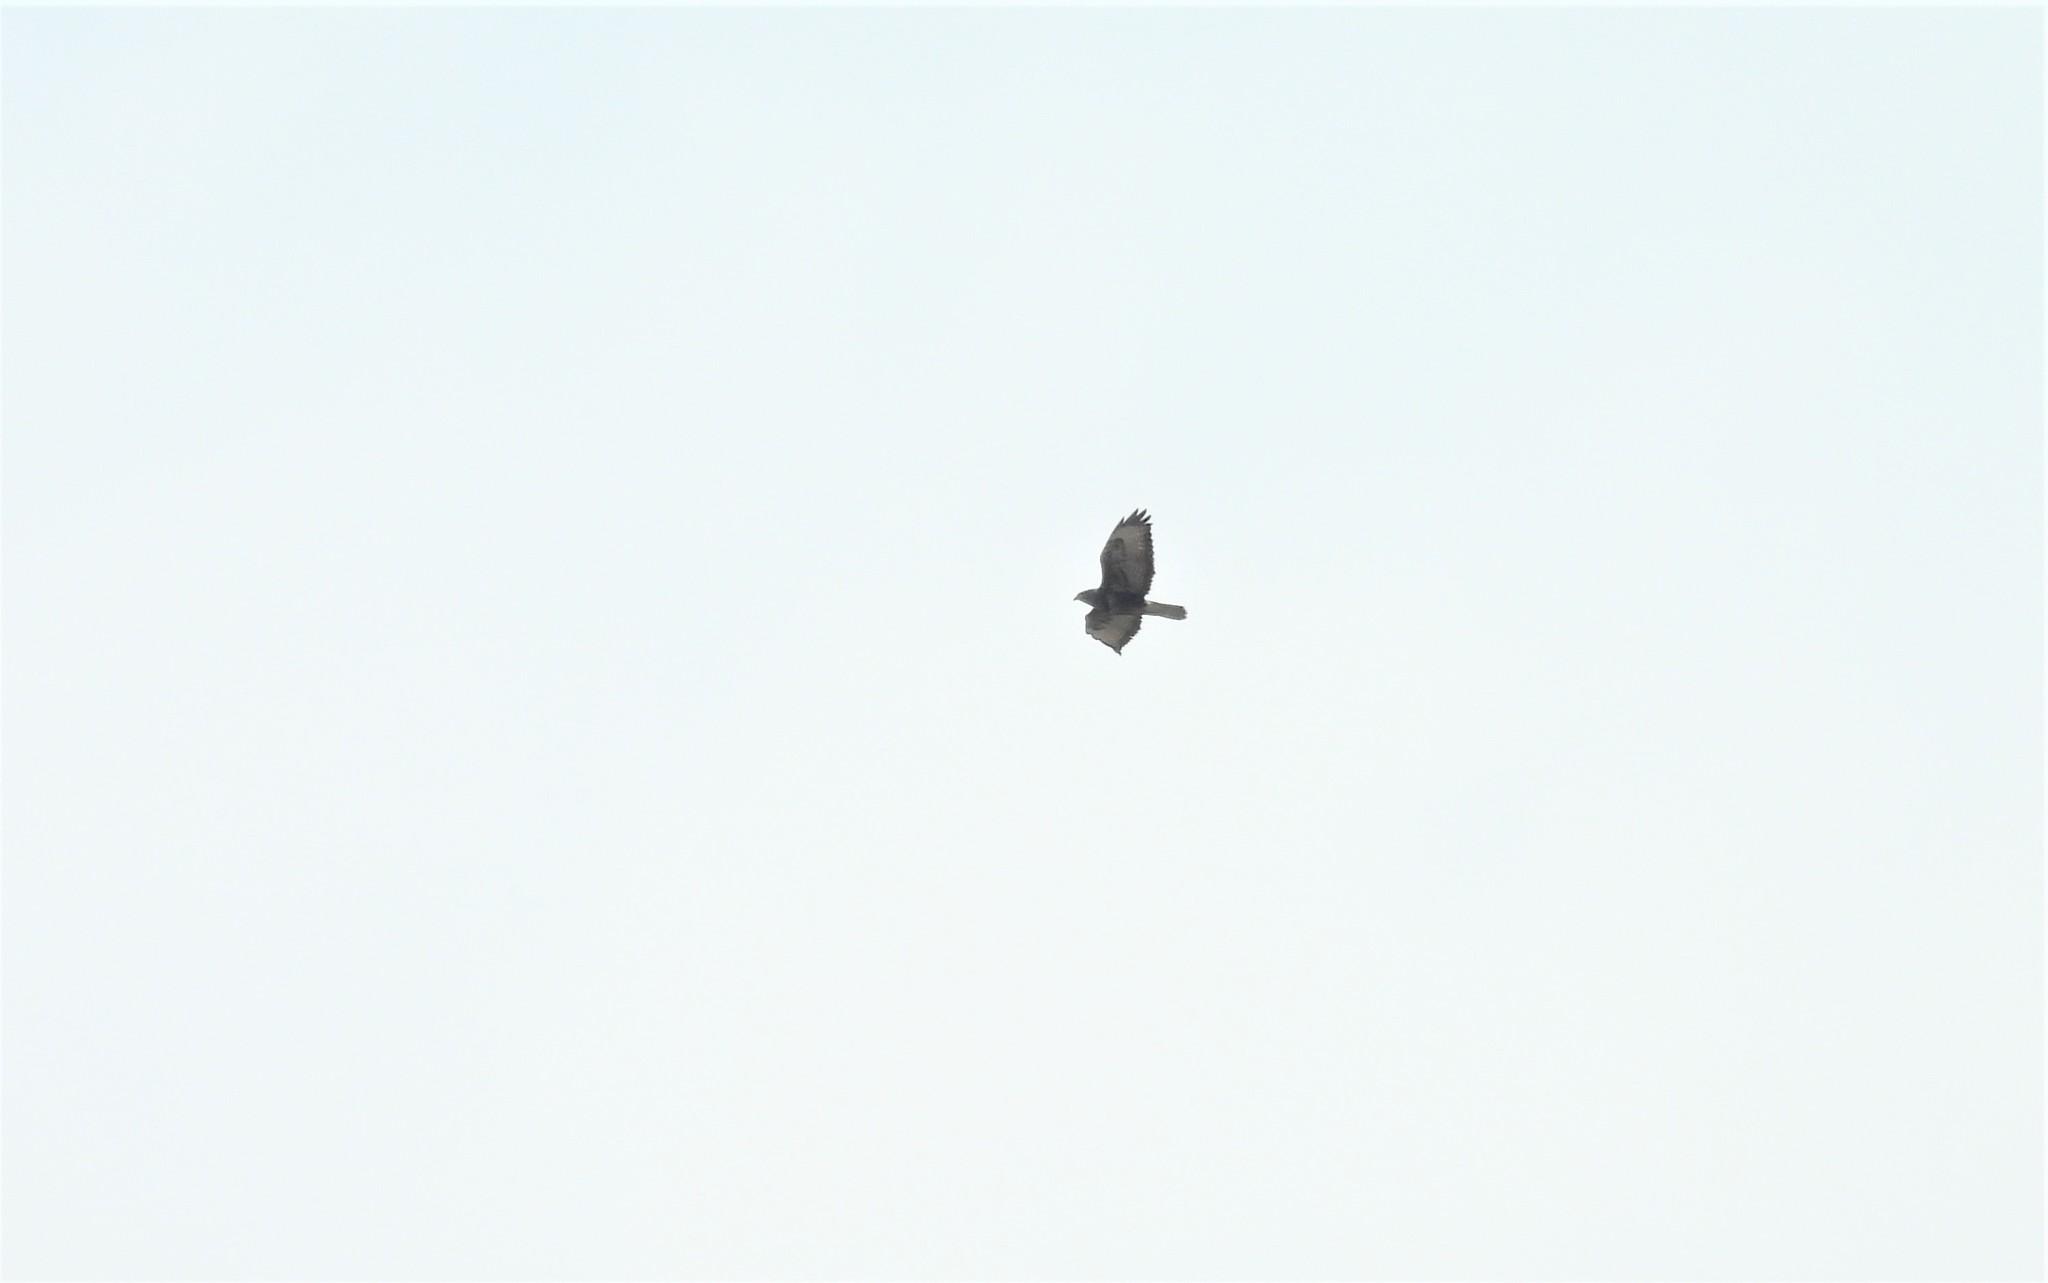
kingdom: Animalia
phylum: Chordata
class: Aves
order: Accipitriformes
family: Accipitridae
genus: Buteo
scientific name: Buteo buteo
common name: Common buzzard
